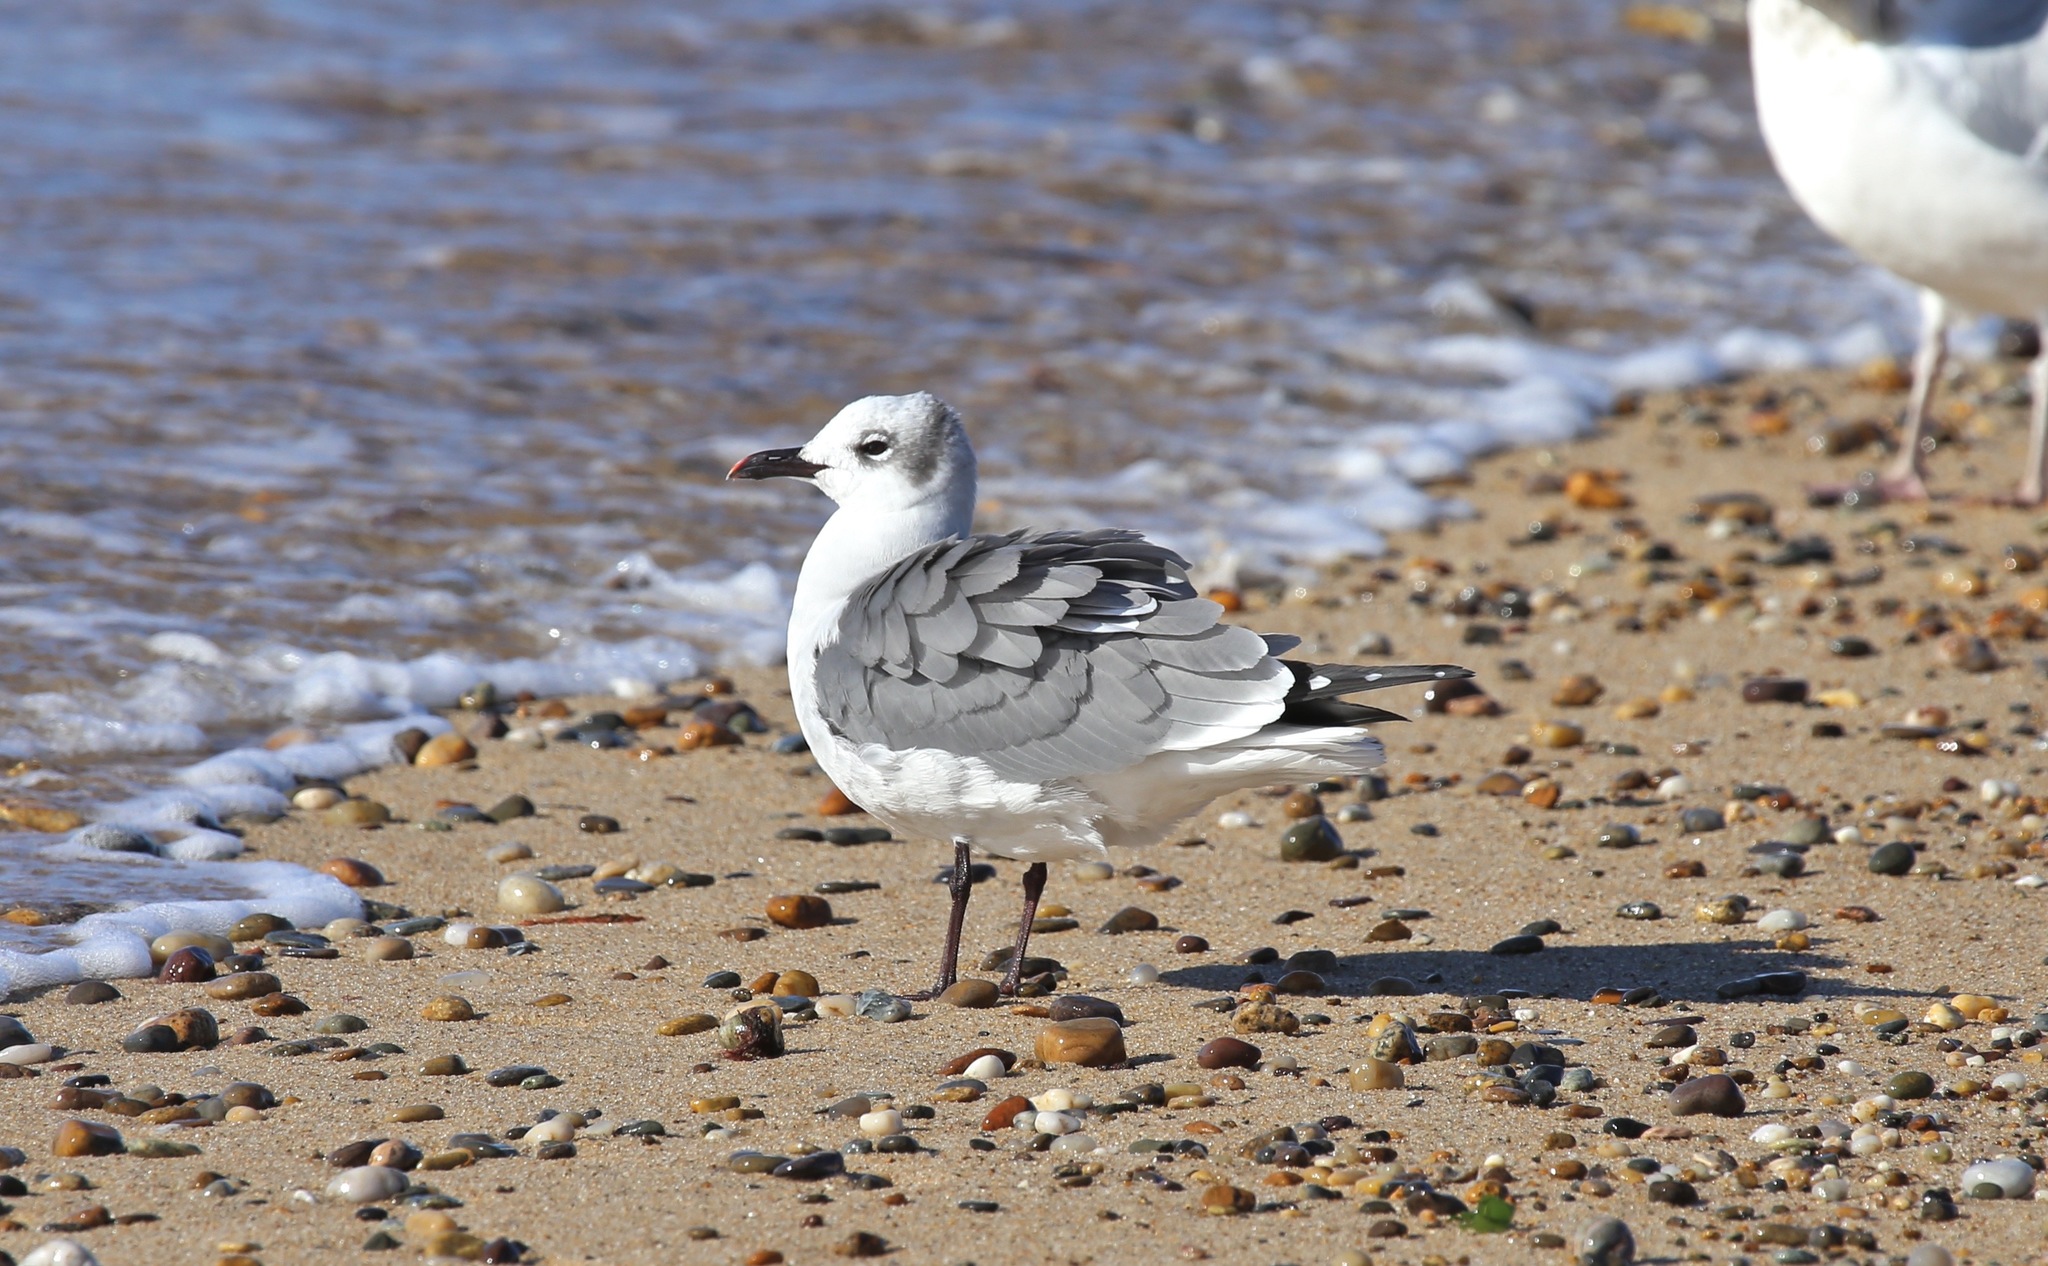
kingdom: Animalia
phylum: Chordata
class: Aves
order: Charadriiformes
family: Laridae
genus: Leucophaeus
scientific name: Leucophaeus atricilla
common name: Laughing gull
